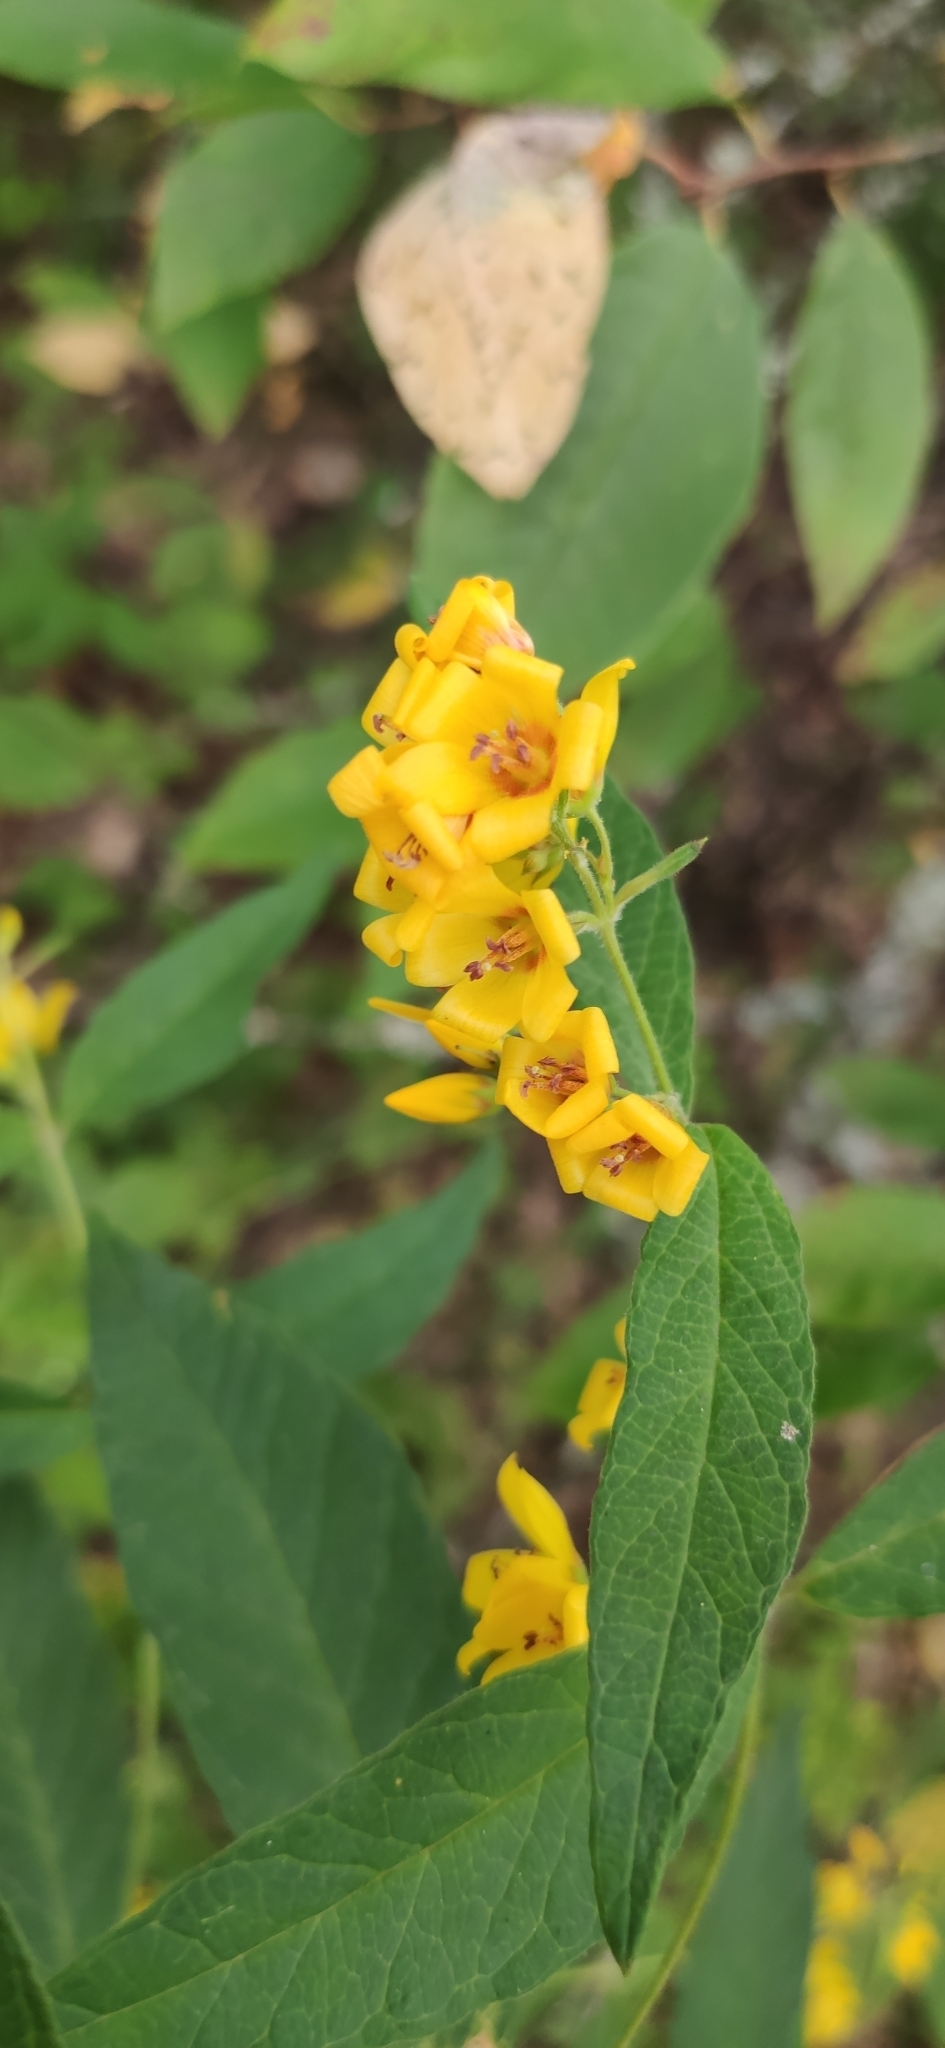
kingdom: Plantae
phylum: Tracheophyta
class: Magnoliopsida
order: Ericales
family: Primulaceae
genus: Lysimachia
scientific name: Lysimachia vulgaris
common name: Yellow loosestrife
